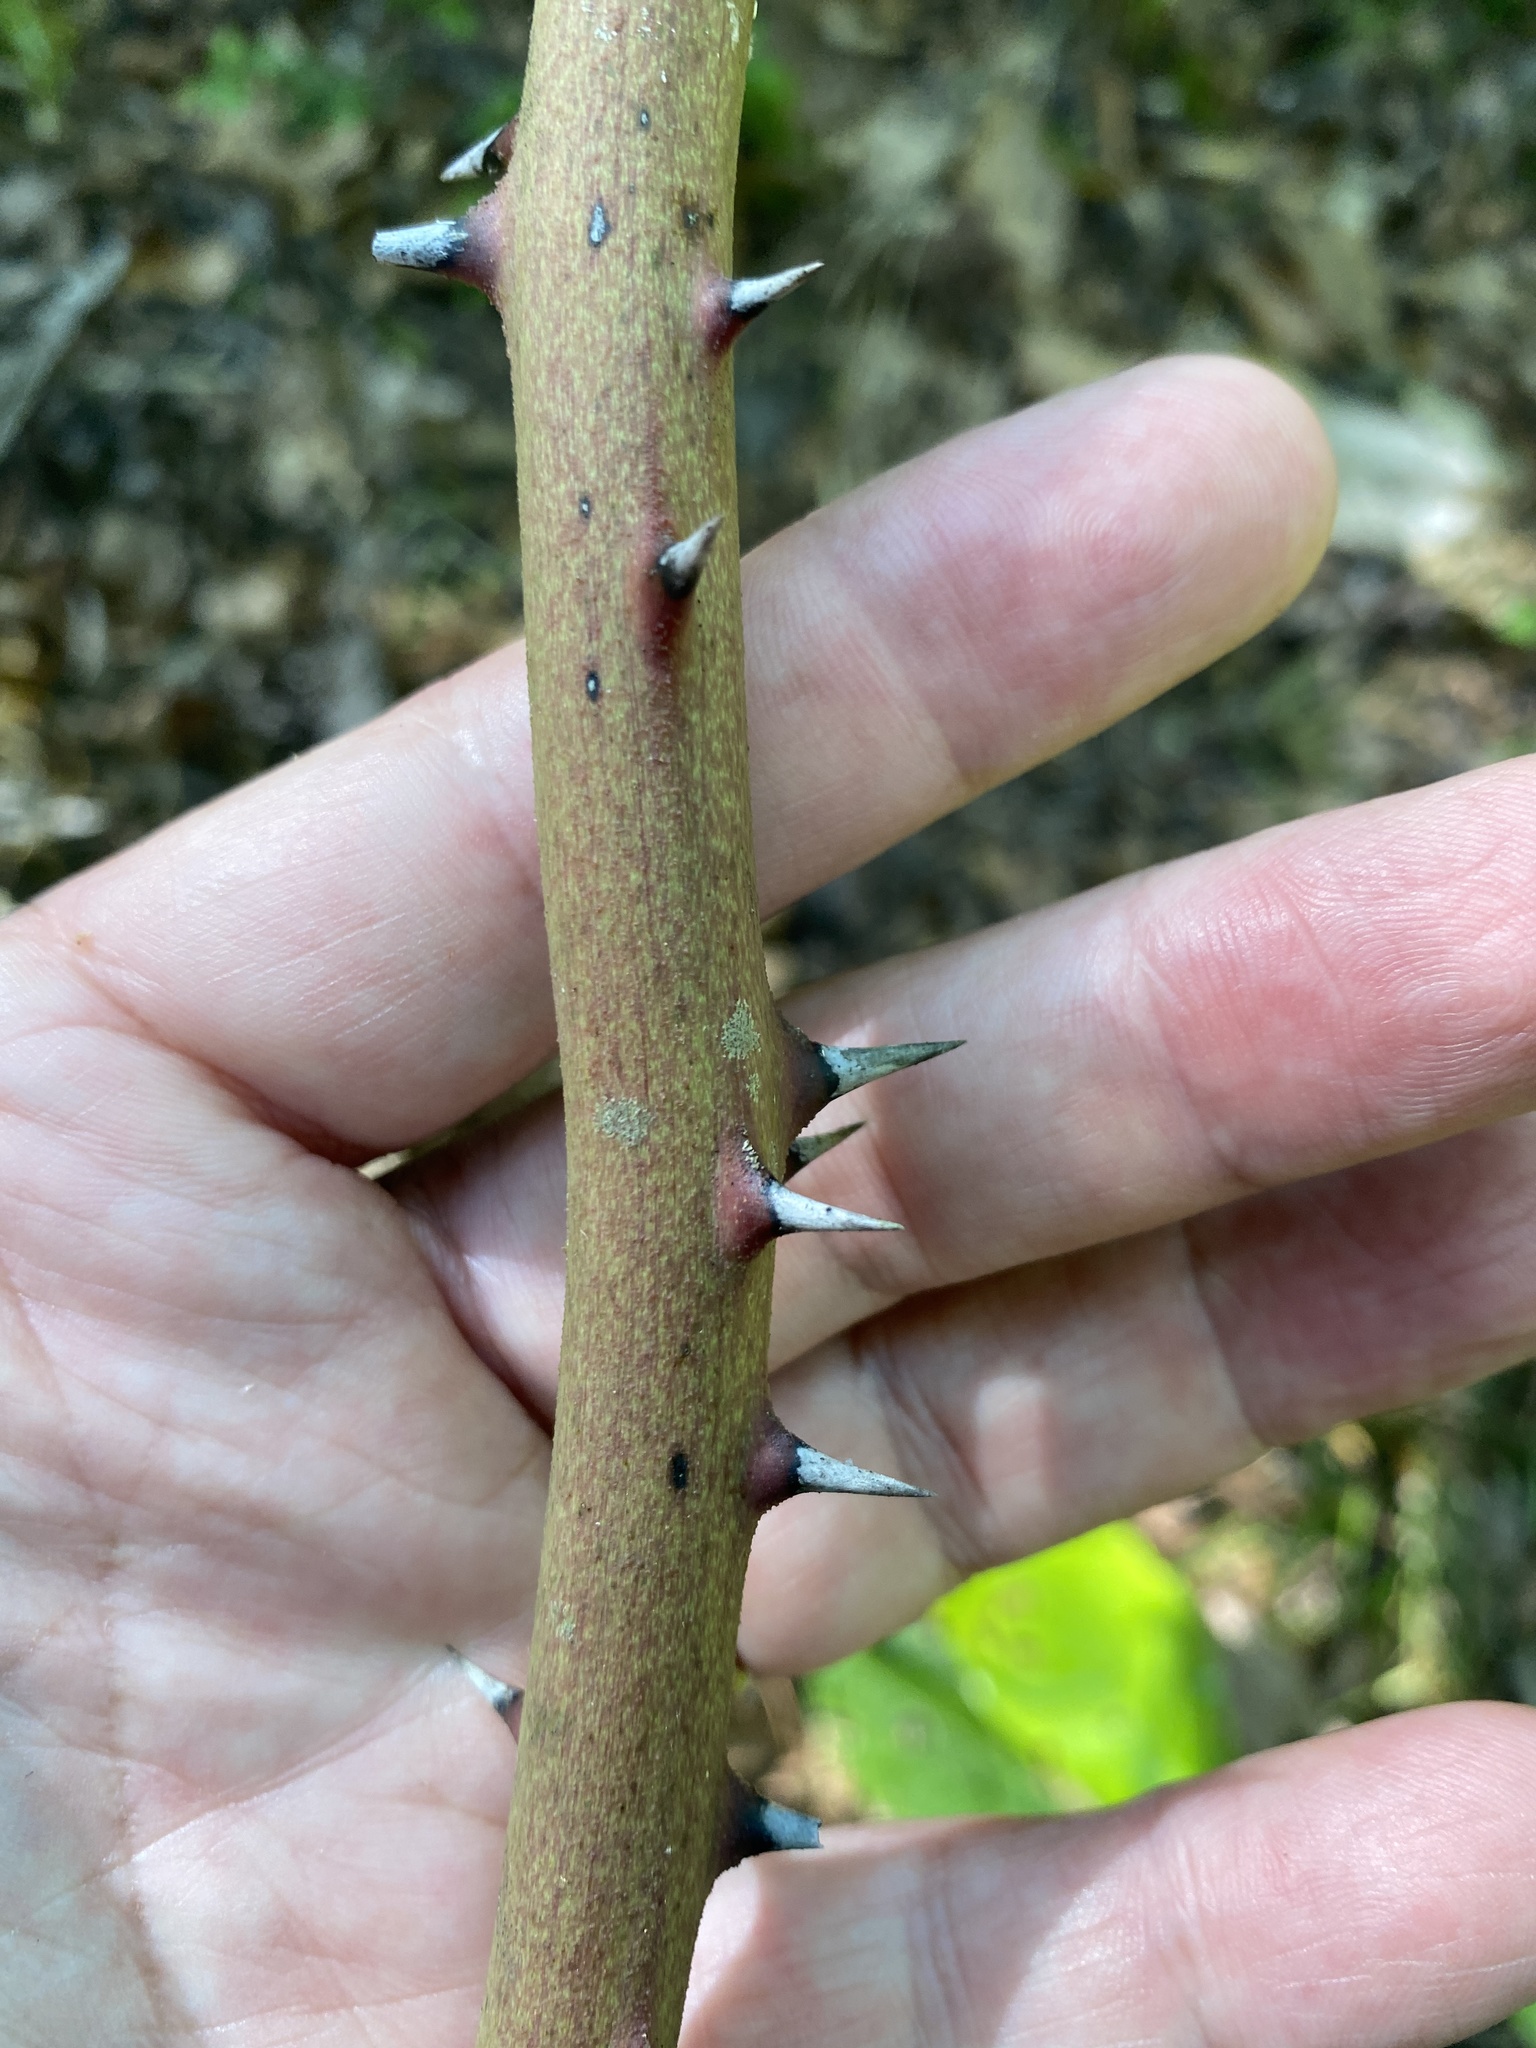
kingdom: Plantae
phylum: Tracheophyta
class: Liliopsida
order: Liliales
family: Smilacaceae
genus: Smilax
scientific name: Smilax laurifolia
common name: Bamboovine
